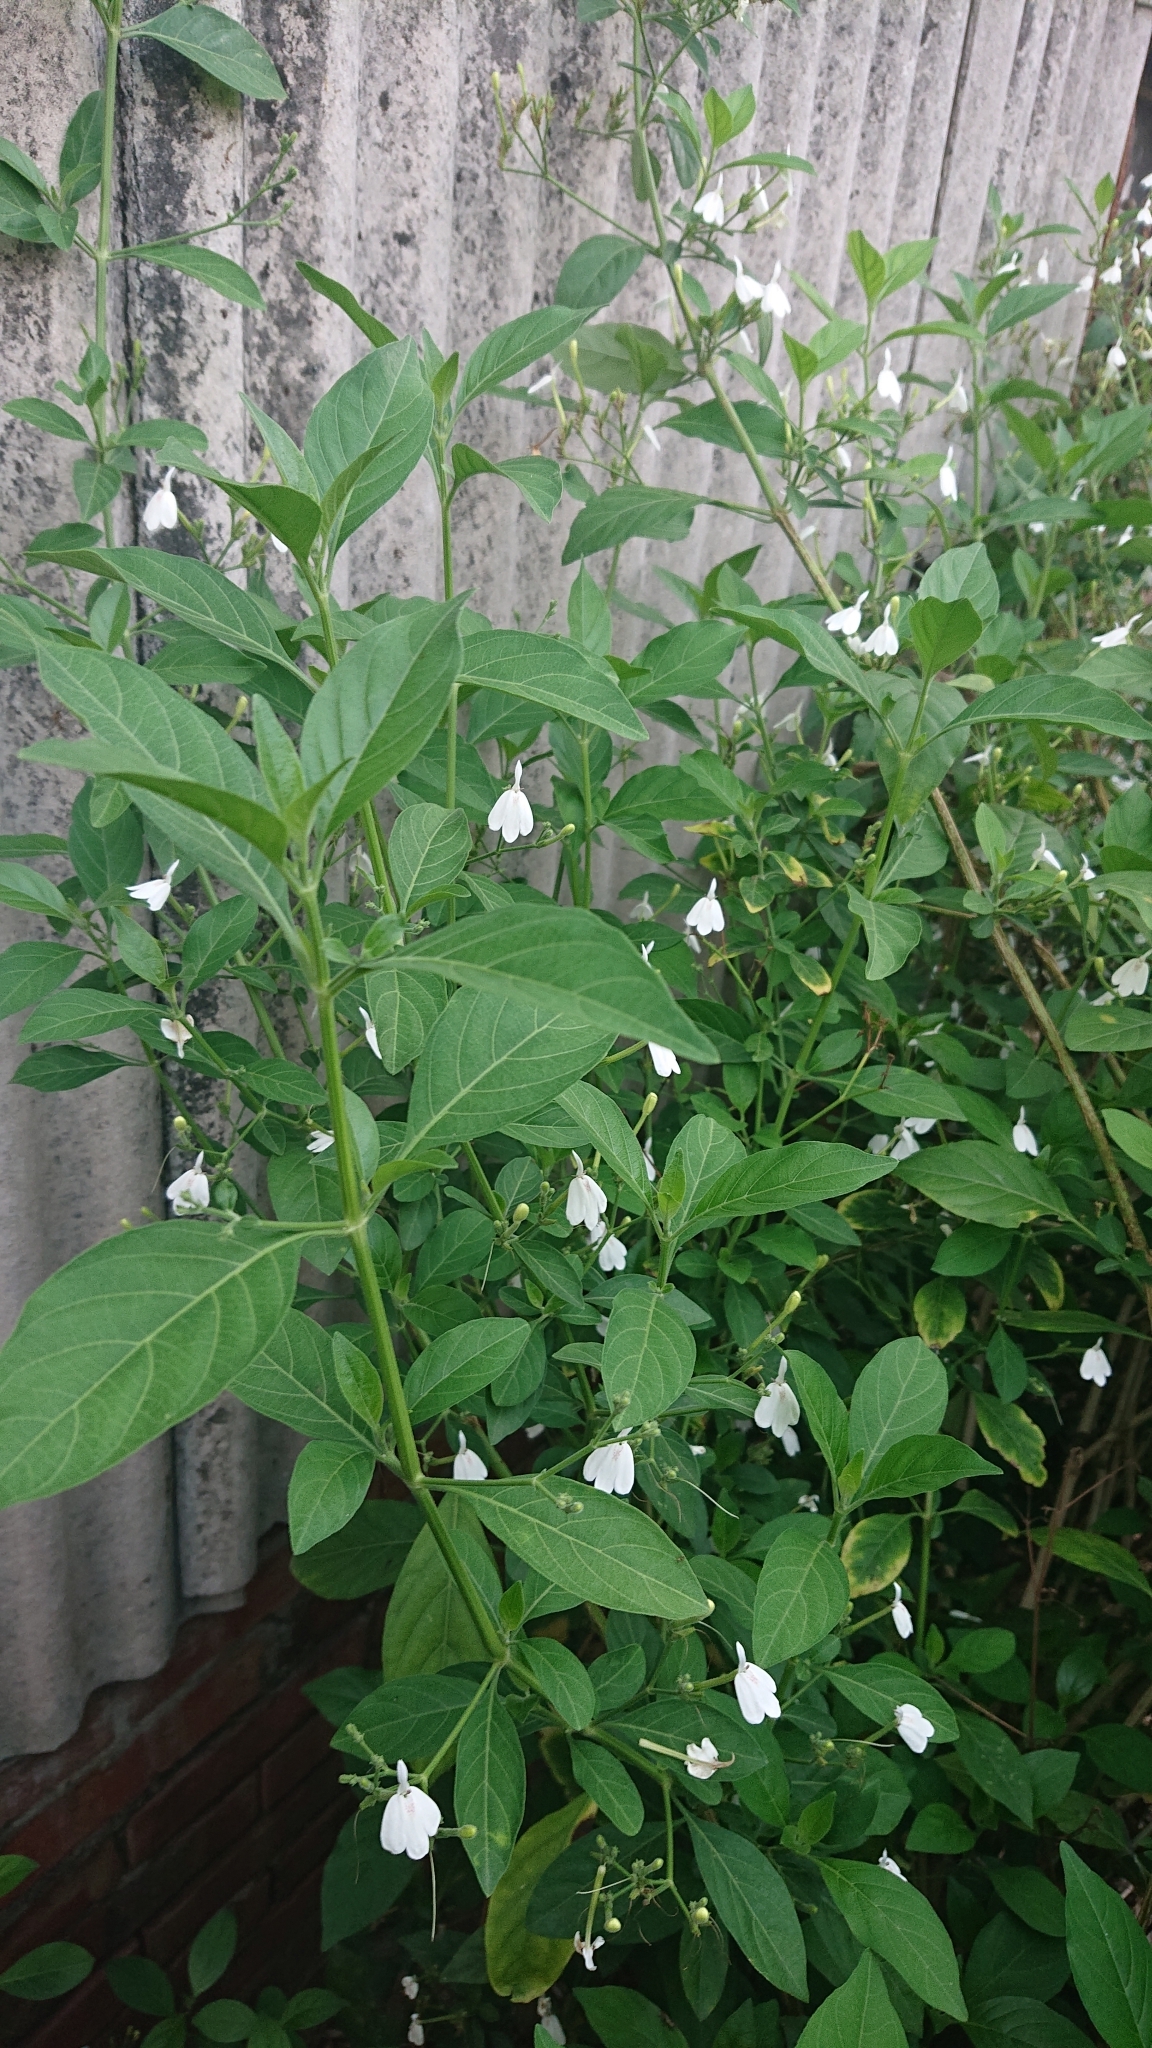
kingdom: Plantae
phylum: Tracheophyta
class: Magnoliopsida
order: Lamiales
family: Acanthaceae
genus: Rhinacanthus
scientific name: Rhinacanthus nasutus
